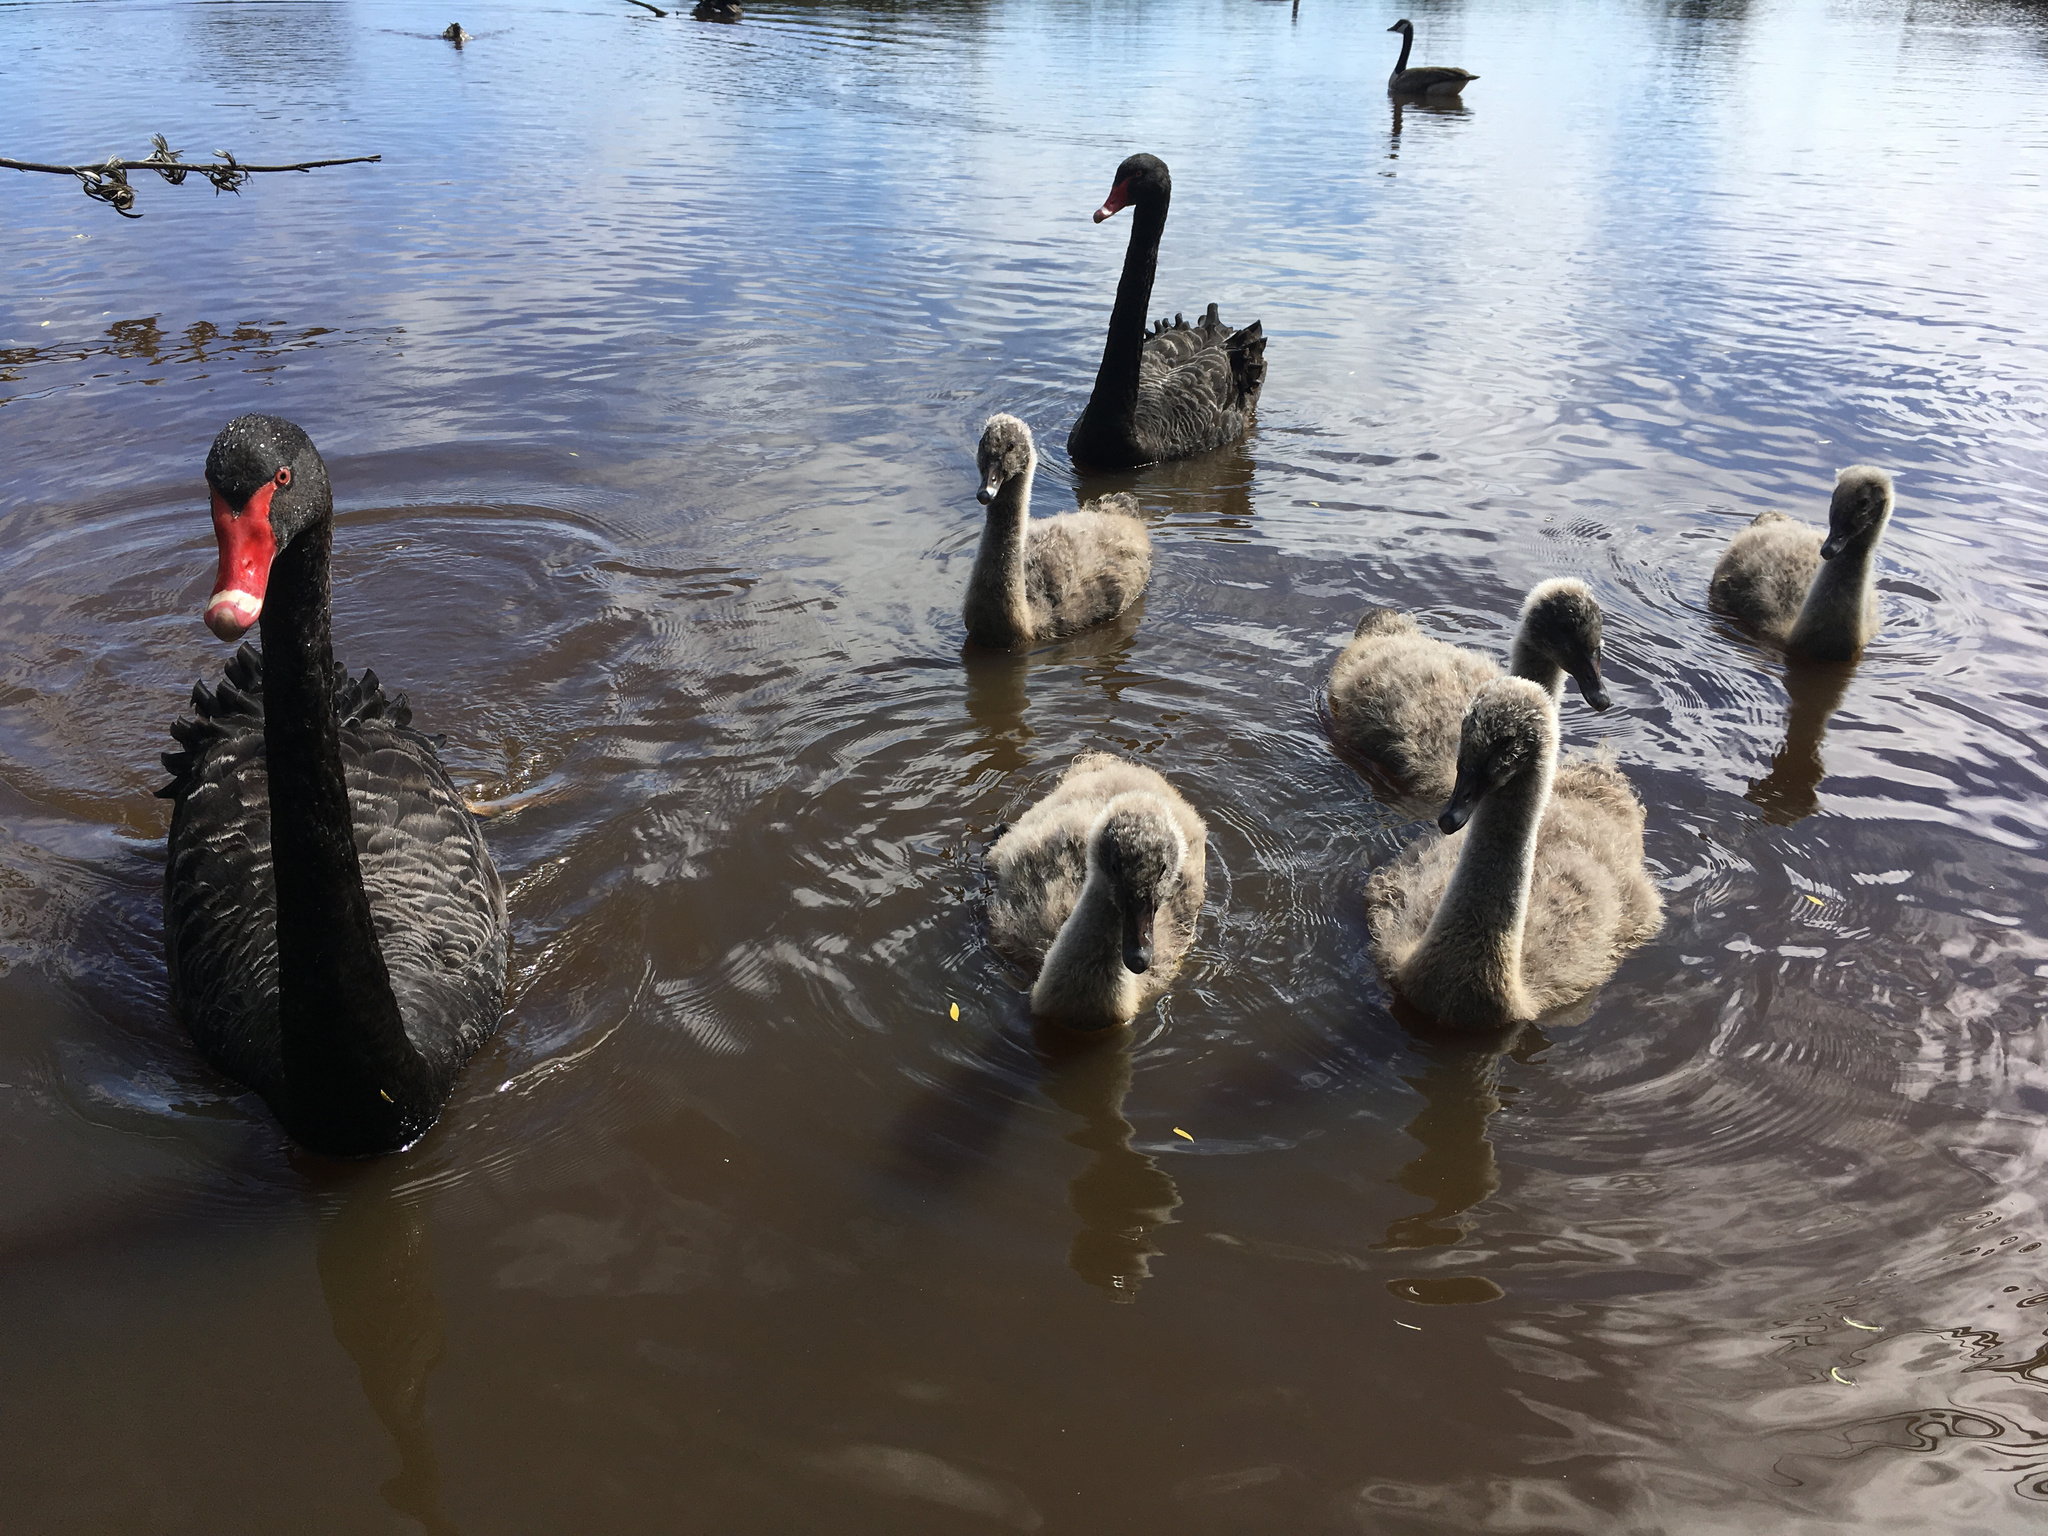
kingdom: Animalia
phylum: Chordata
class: Aves
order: Anseriformes
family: Anatidae
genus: Cygnus
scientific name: Cygnus atratus
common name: Black swan
